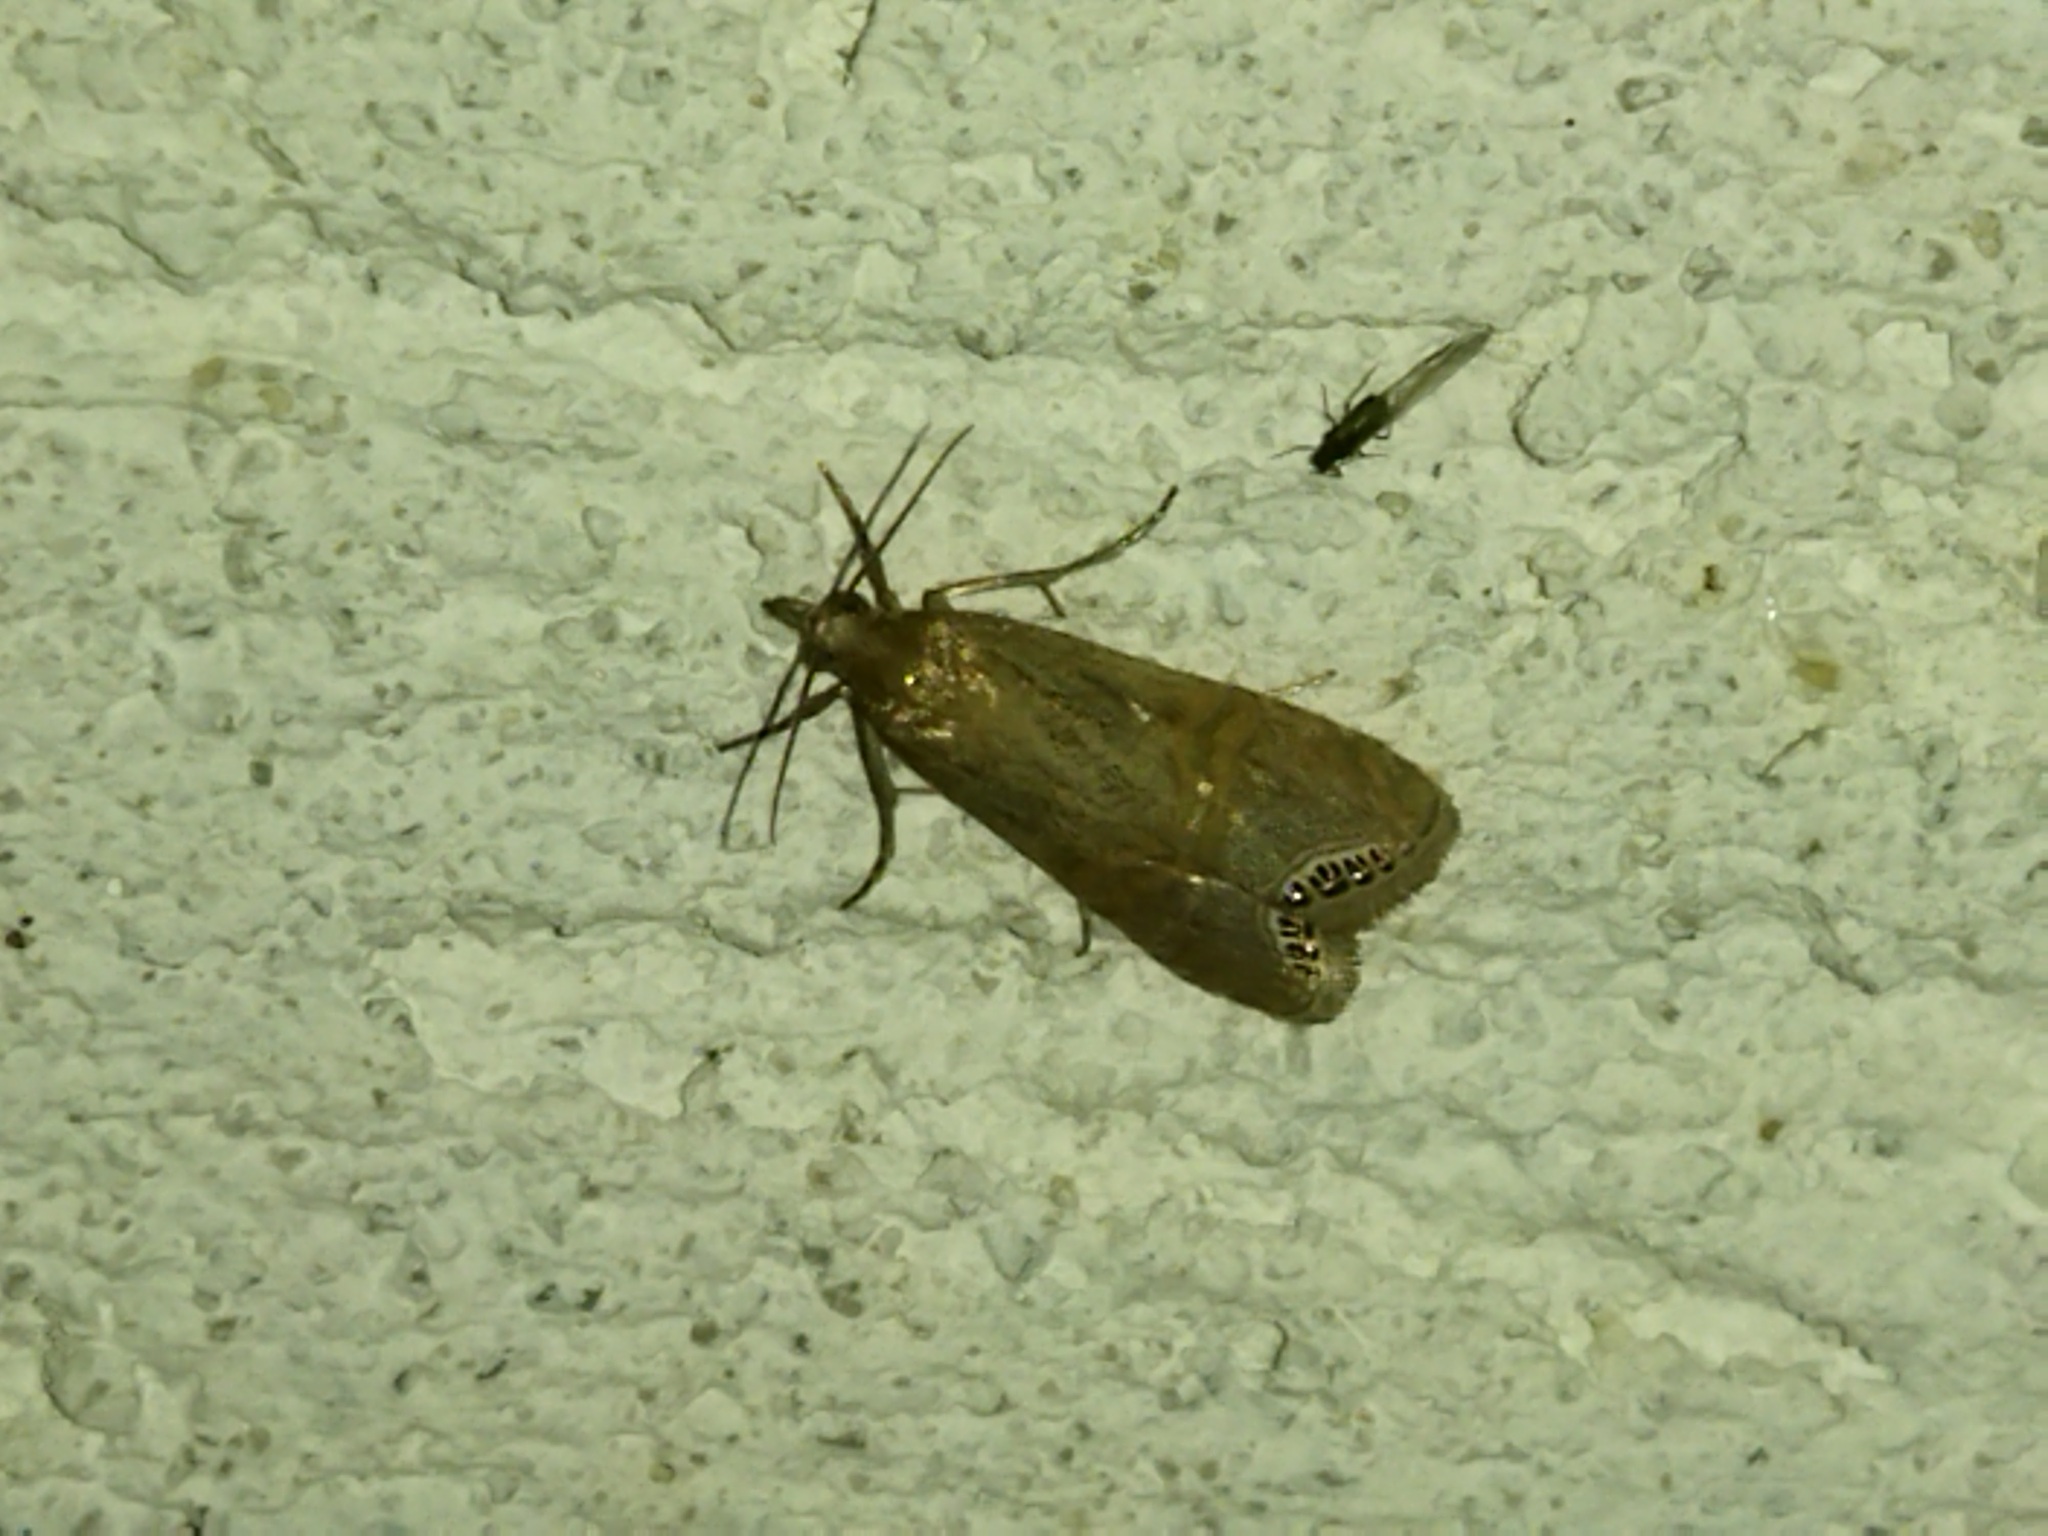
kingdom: Animalia
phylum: Arthropoda
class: Insecta
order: Lepidoptera
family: Crambidae
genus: Euchromius
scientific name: Euchromius ocellea
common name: Necklace veneer moth
